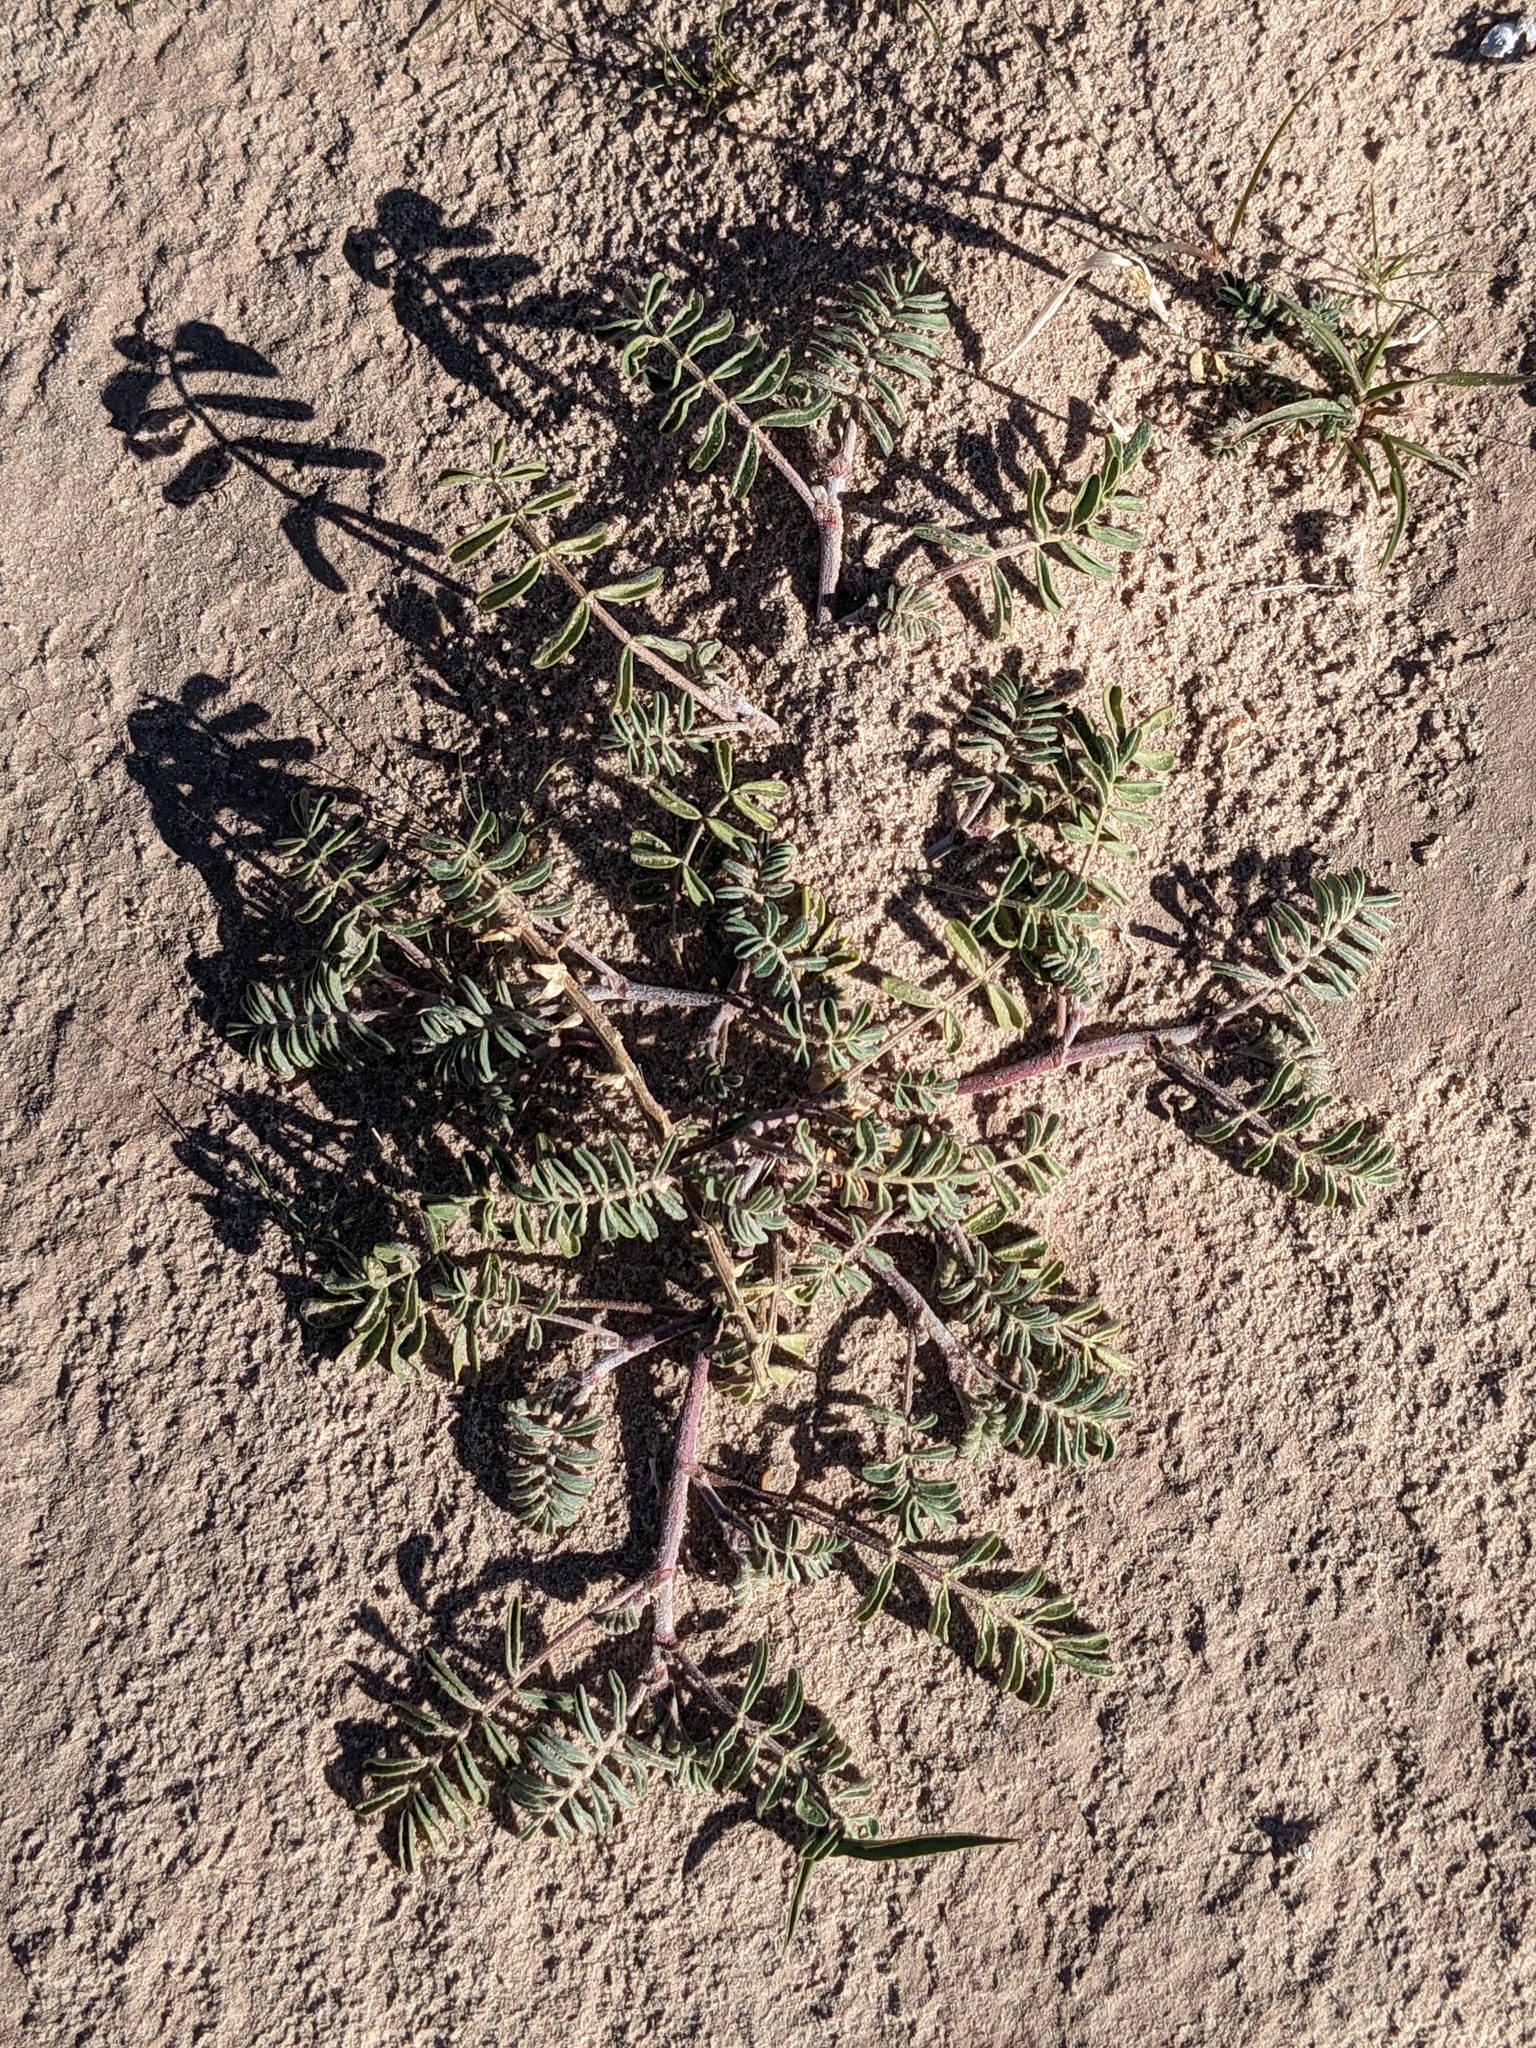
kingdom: Plantae
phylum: Tracheophyta
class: Magnoliopsida
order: Zygophyllales
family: Zygophyllaceae
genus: Tribulus
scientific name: Tribulus terrestris
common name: Puncturevine
